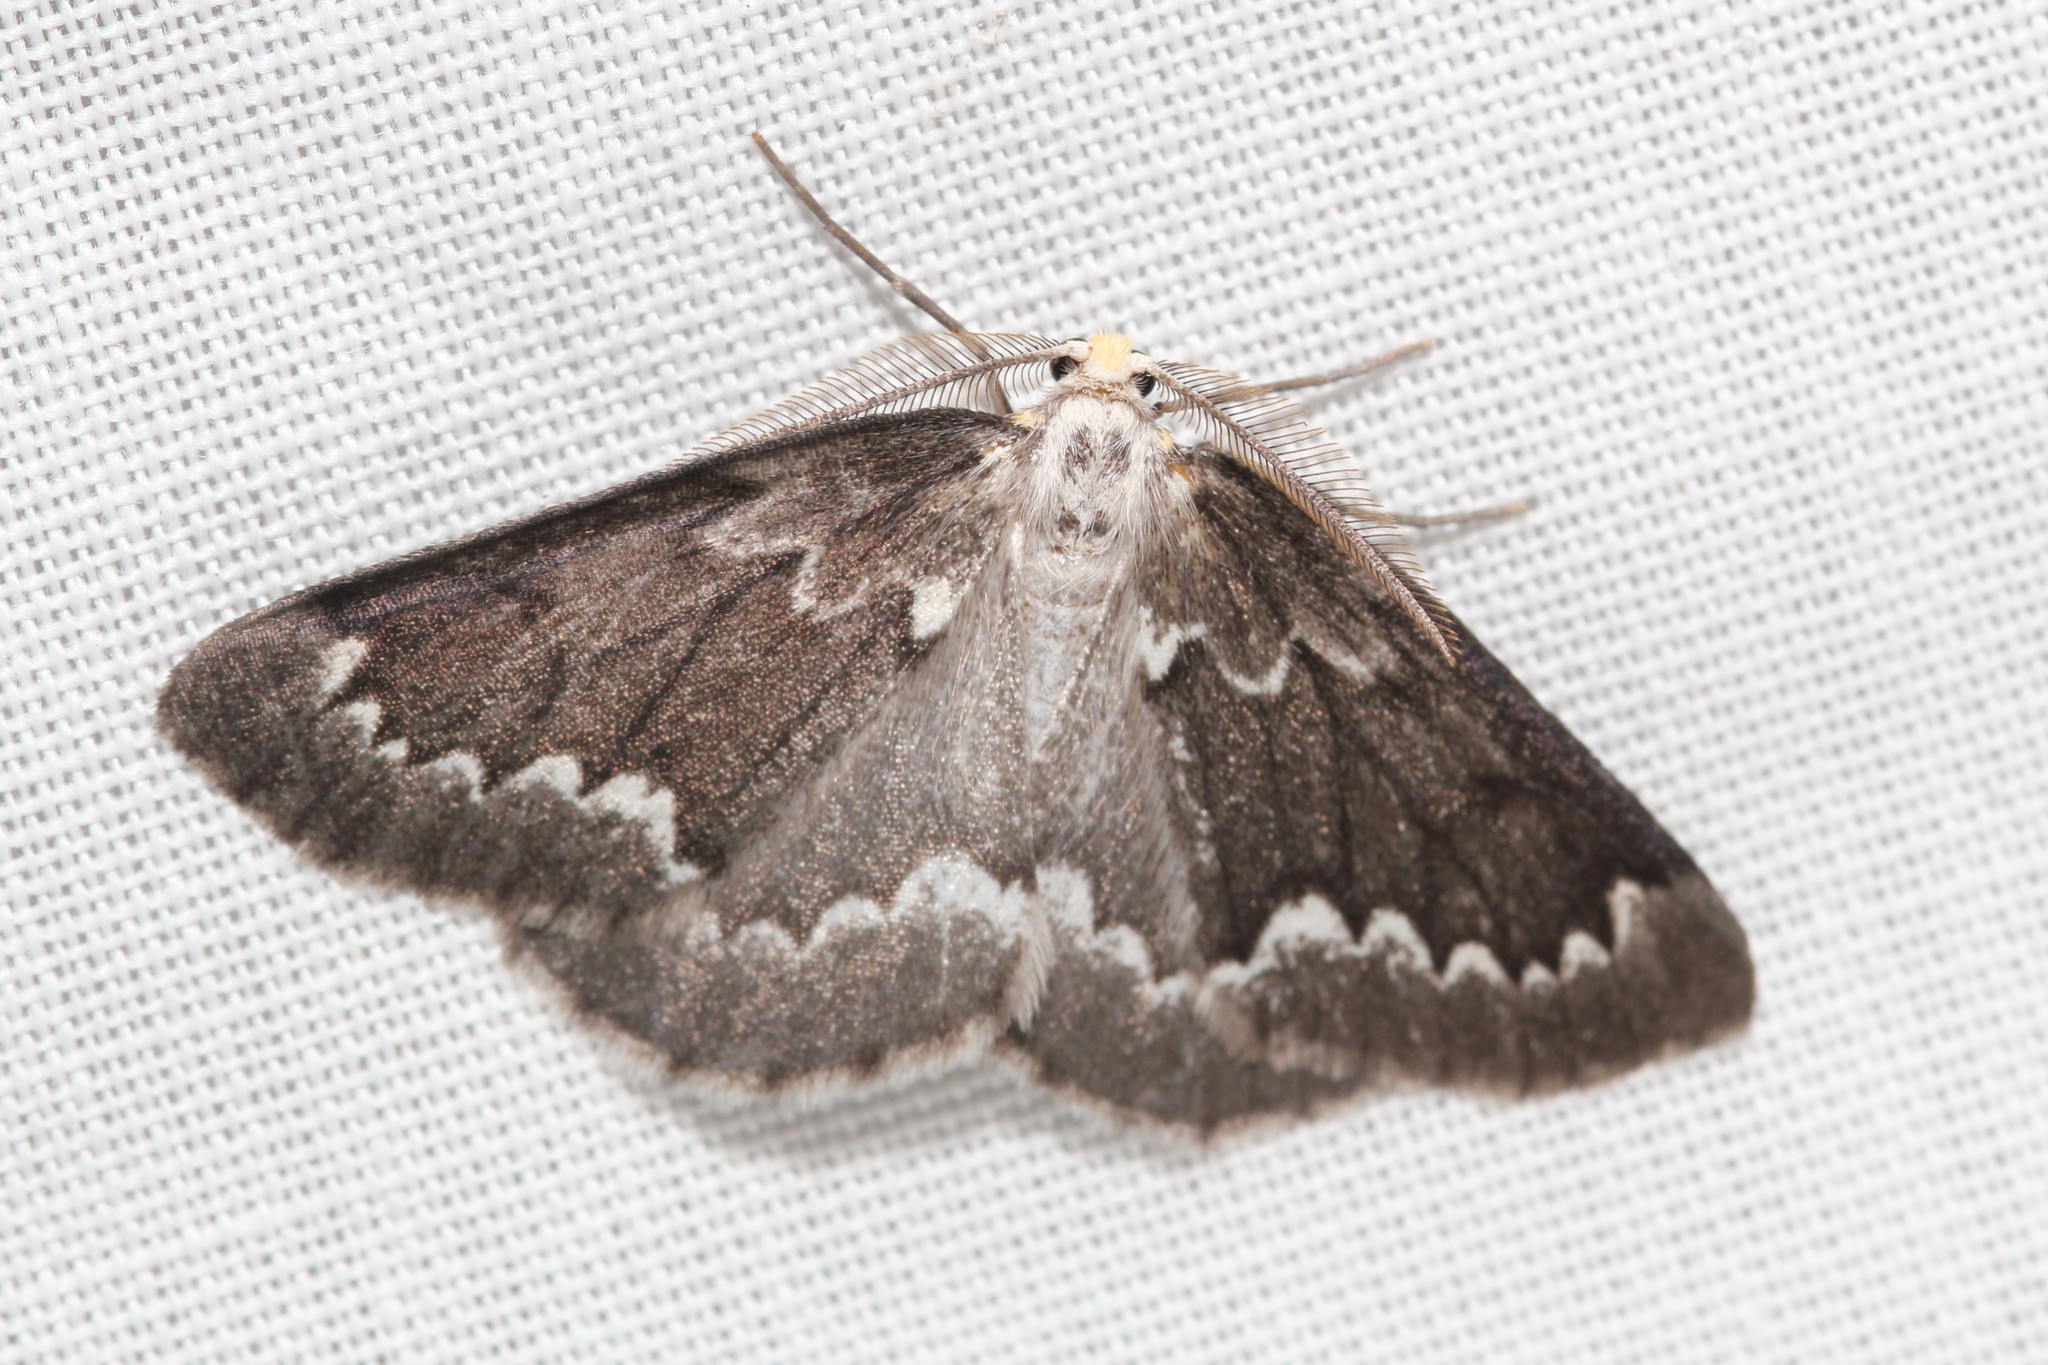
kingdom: Animalia
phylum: Arthropoda
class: Insecta
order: Lepidoptera
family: Geometridae
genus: Nepytia
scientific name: Nepytia canosaria
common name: False hemlock looper
